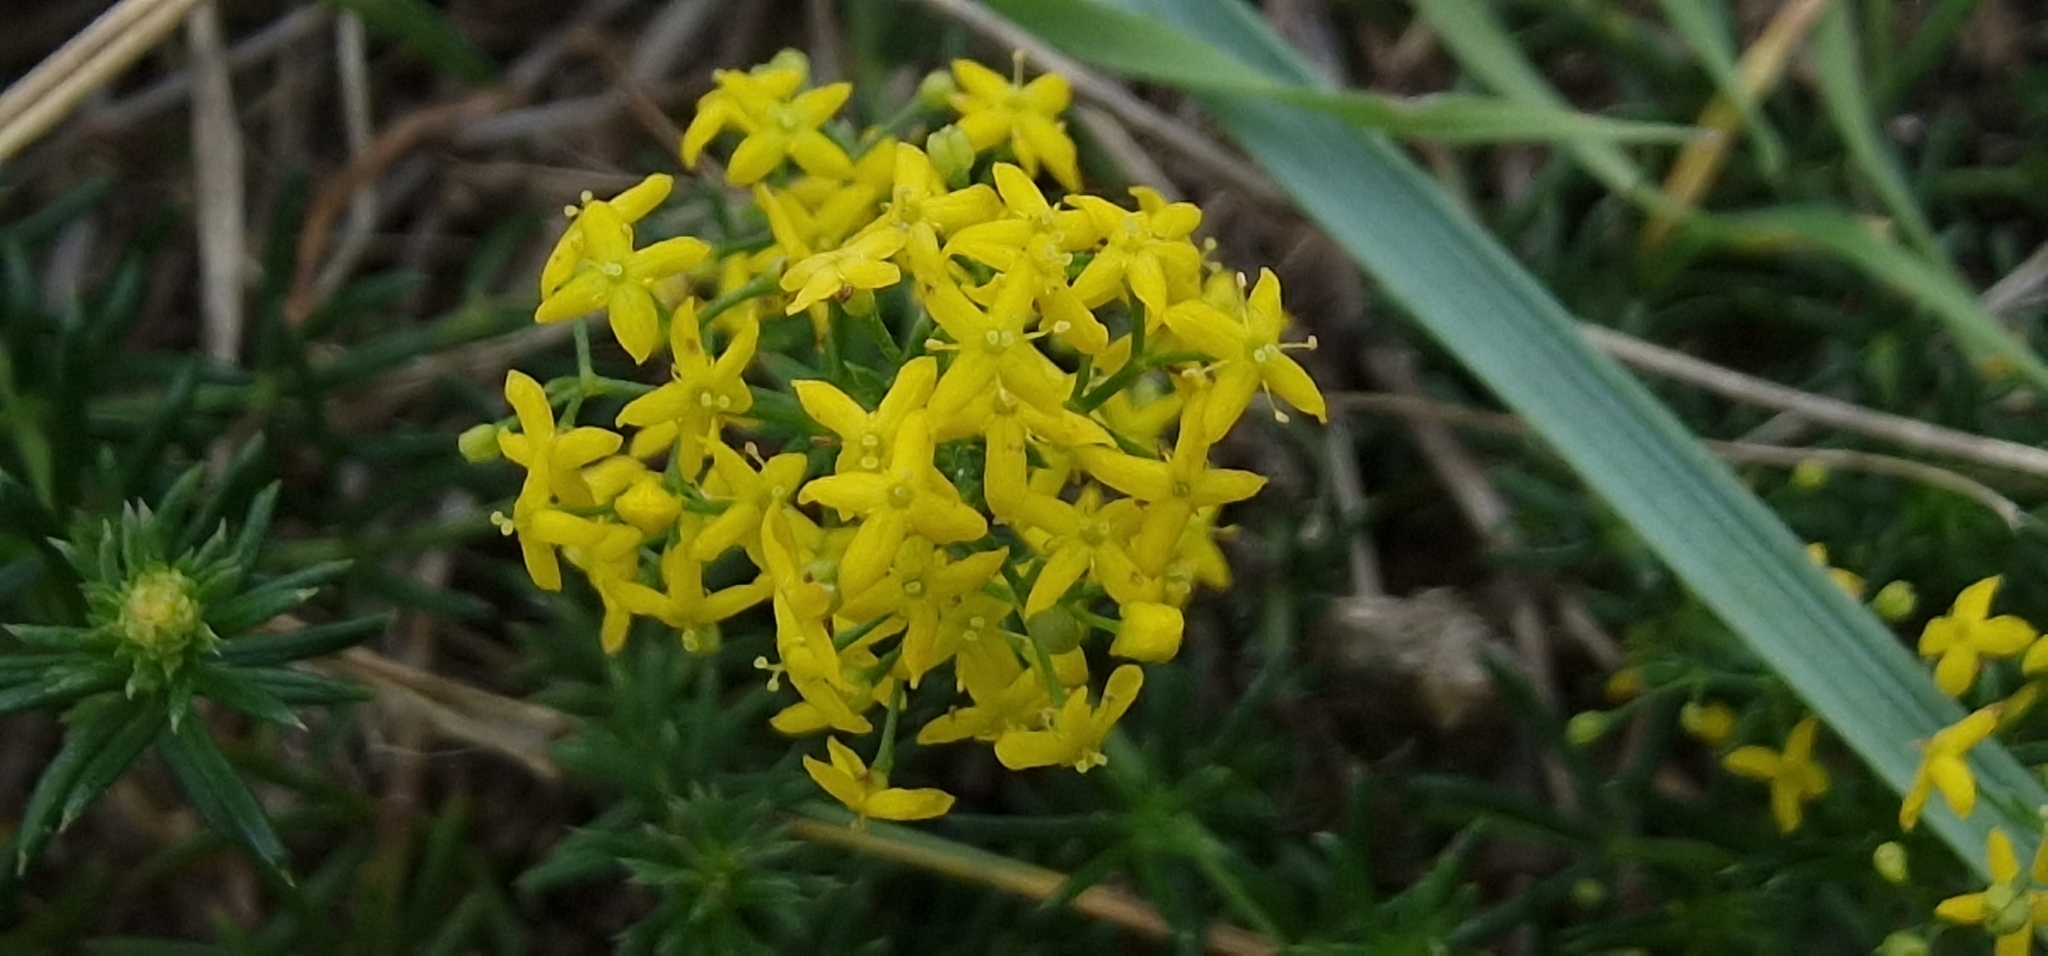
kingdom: Plantae
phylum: Tracheophyta
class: Magnoliopsida
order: Gentianales
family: Rubiaceae
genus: Galium
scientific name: Galium verum
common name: Lady's bedstraw
